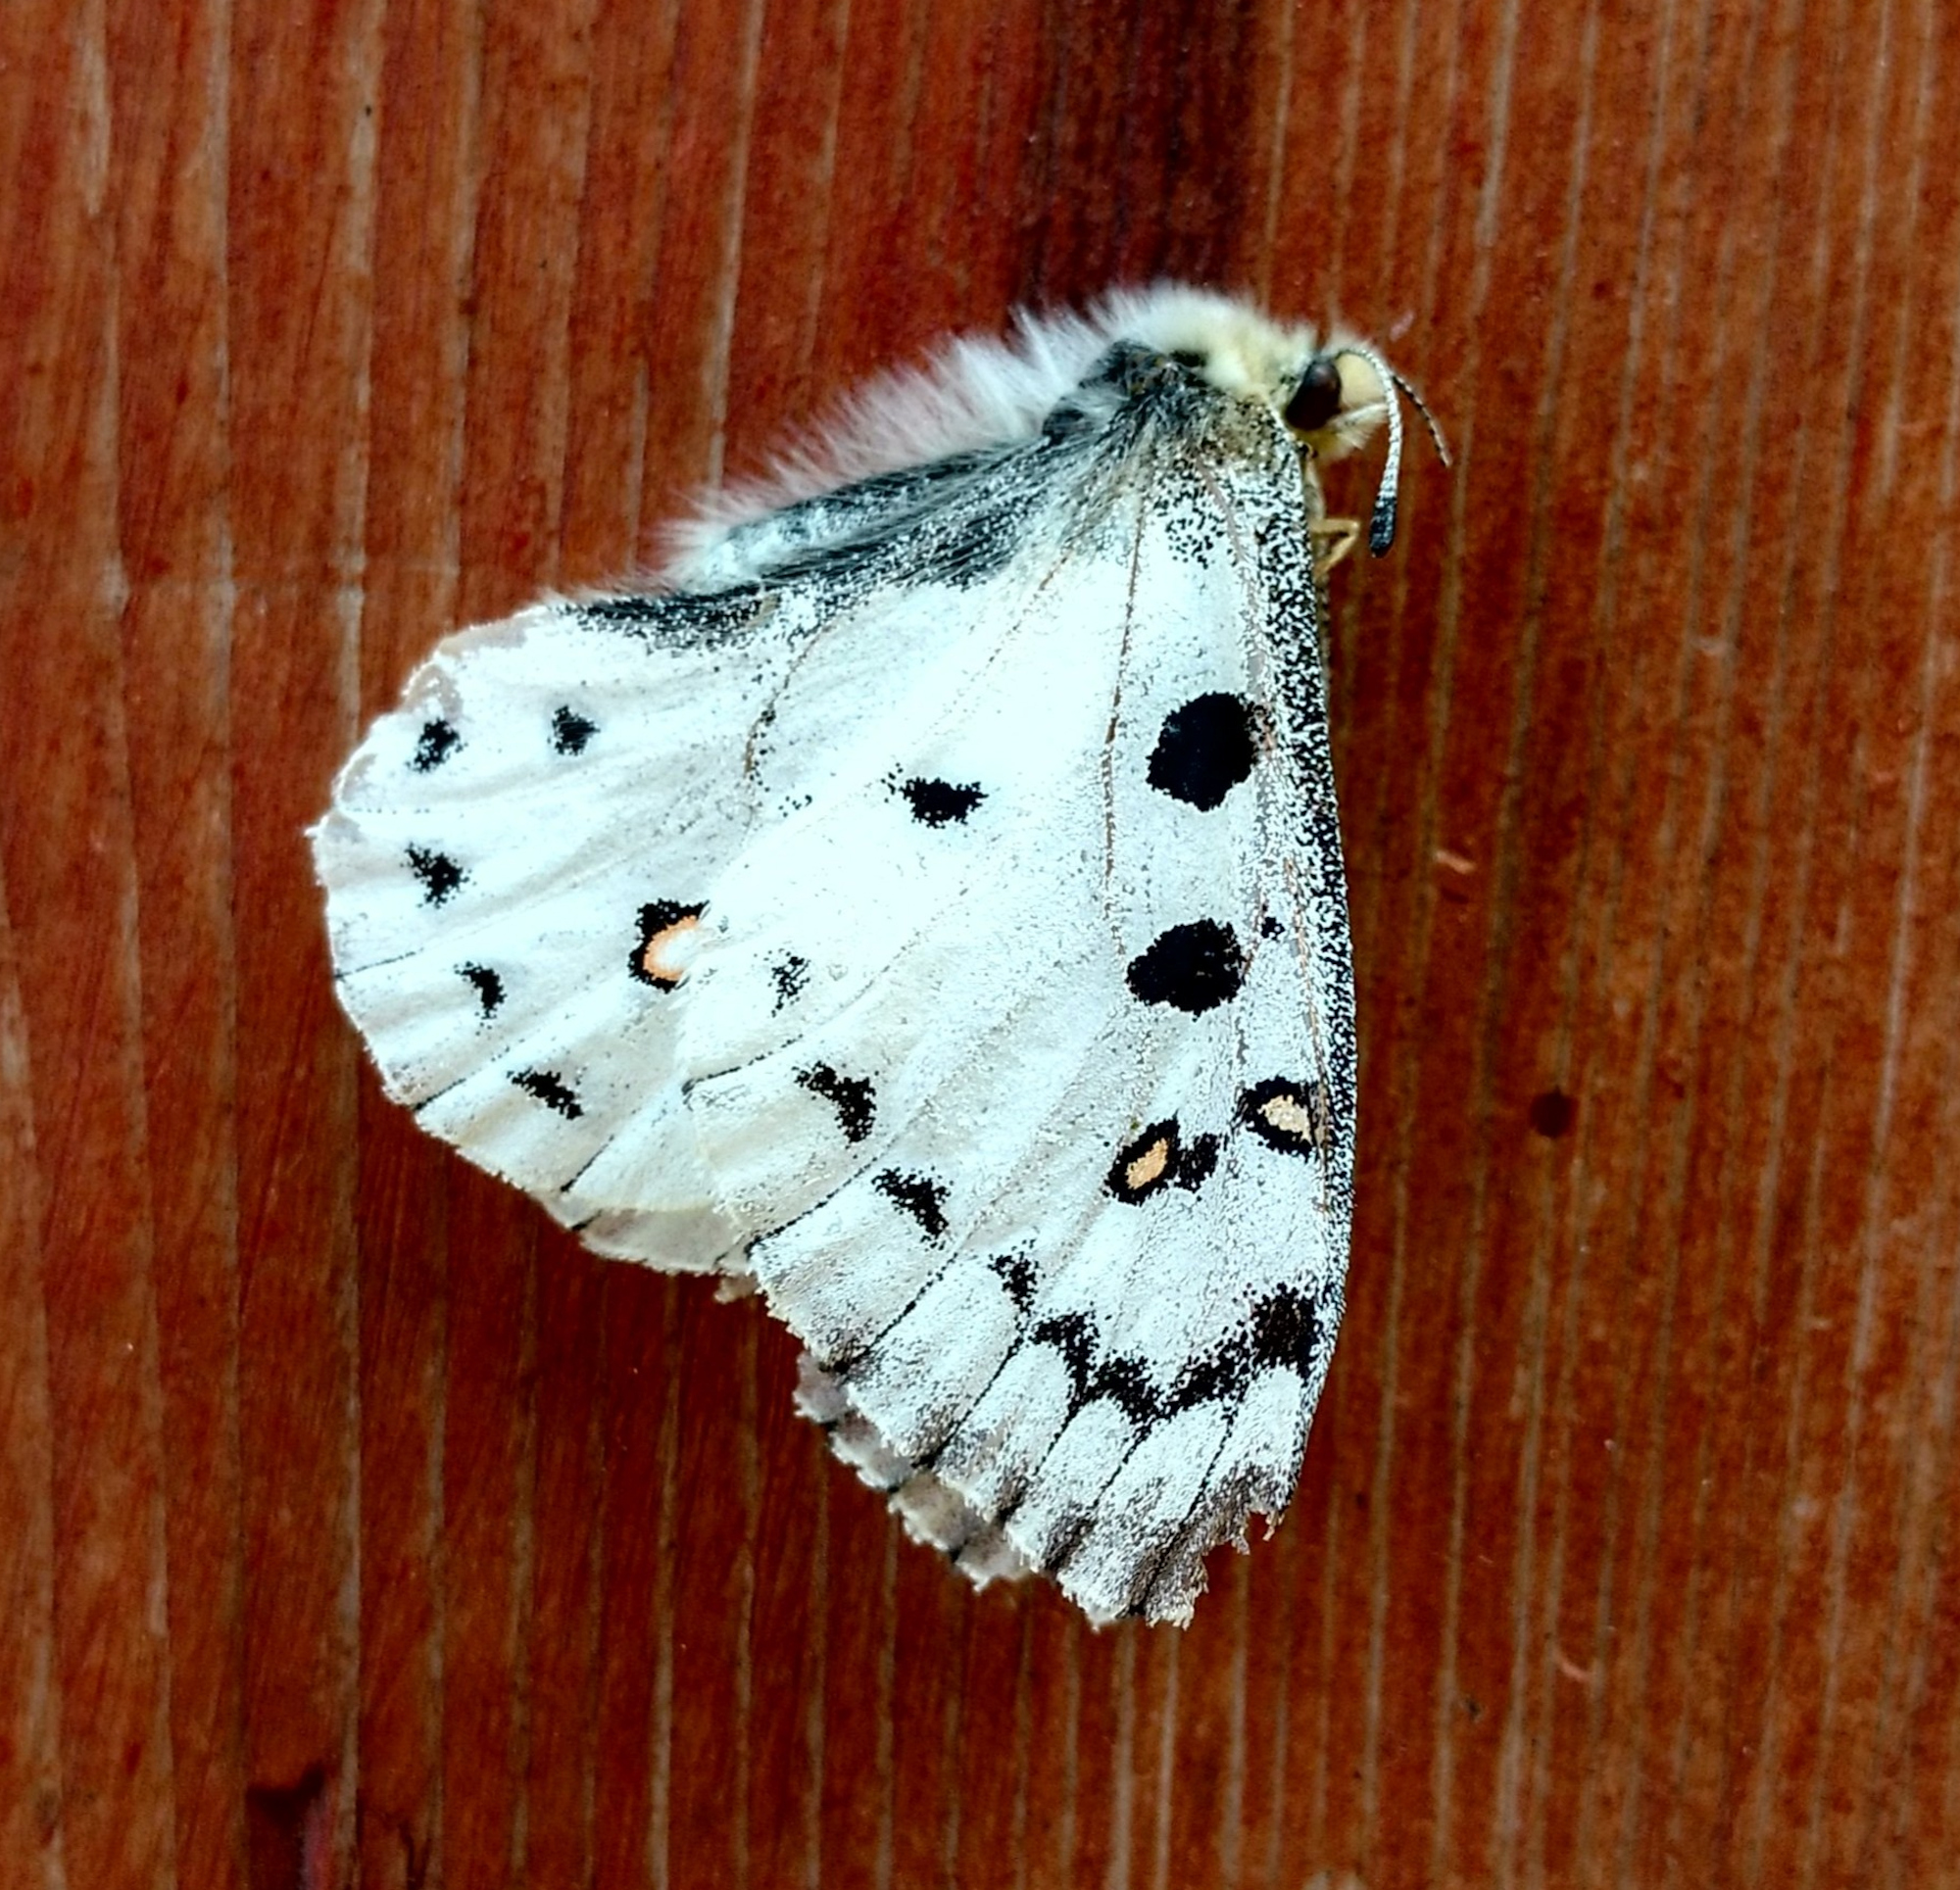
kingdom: Animalia
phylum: Arthropoda
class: Insecta
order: Lepidoptera
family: Papilionidae
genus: Parnassius
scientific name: Parnassius smintheus
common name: Mountain parnassian
